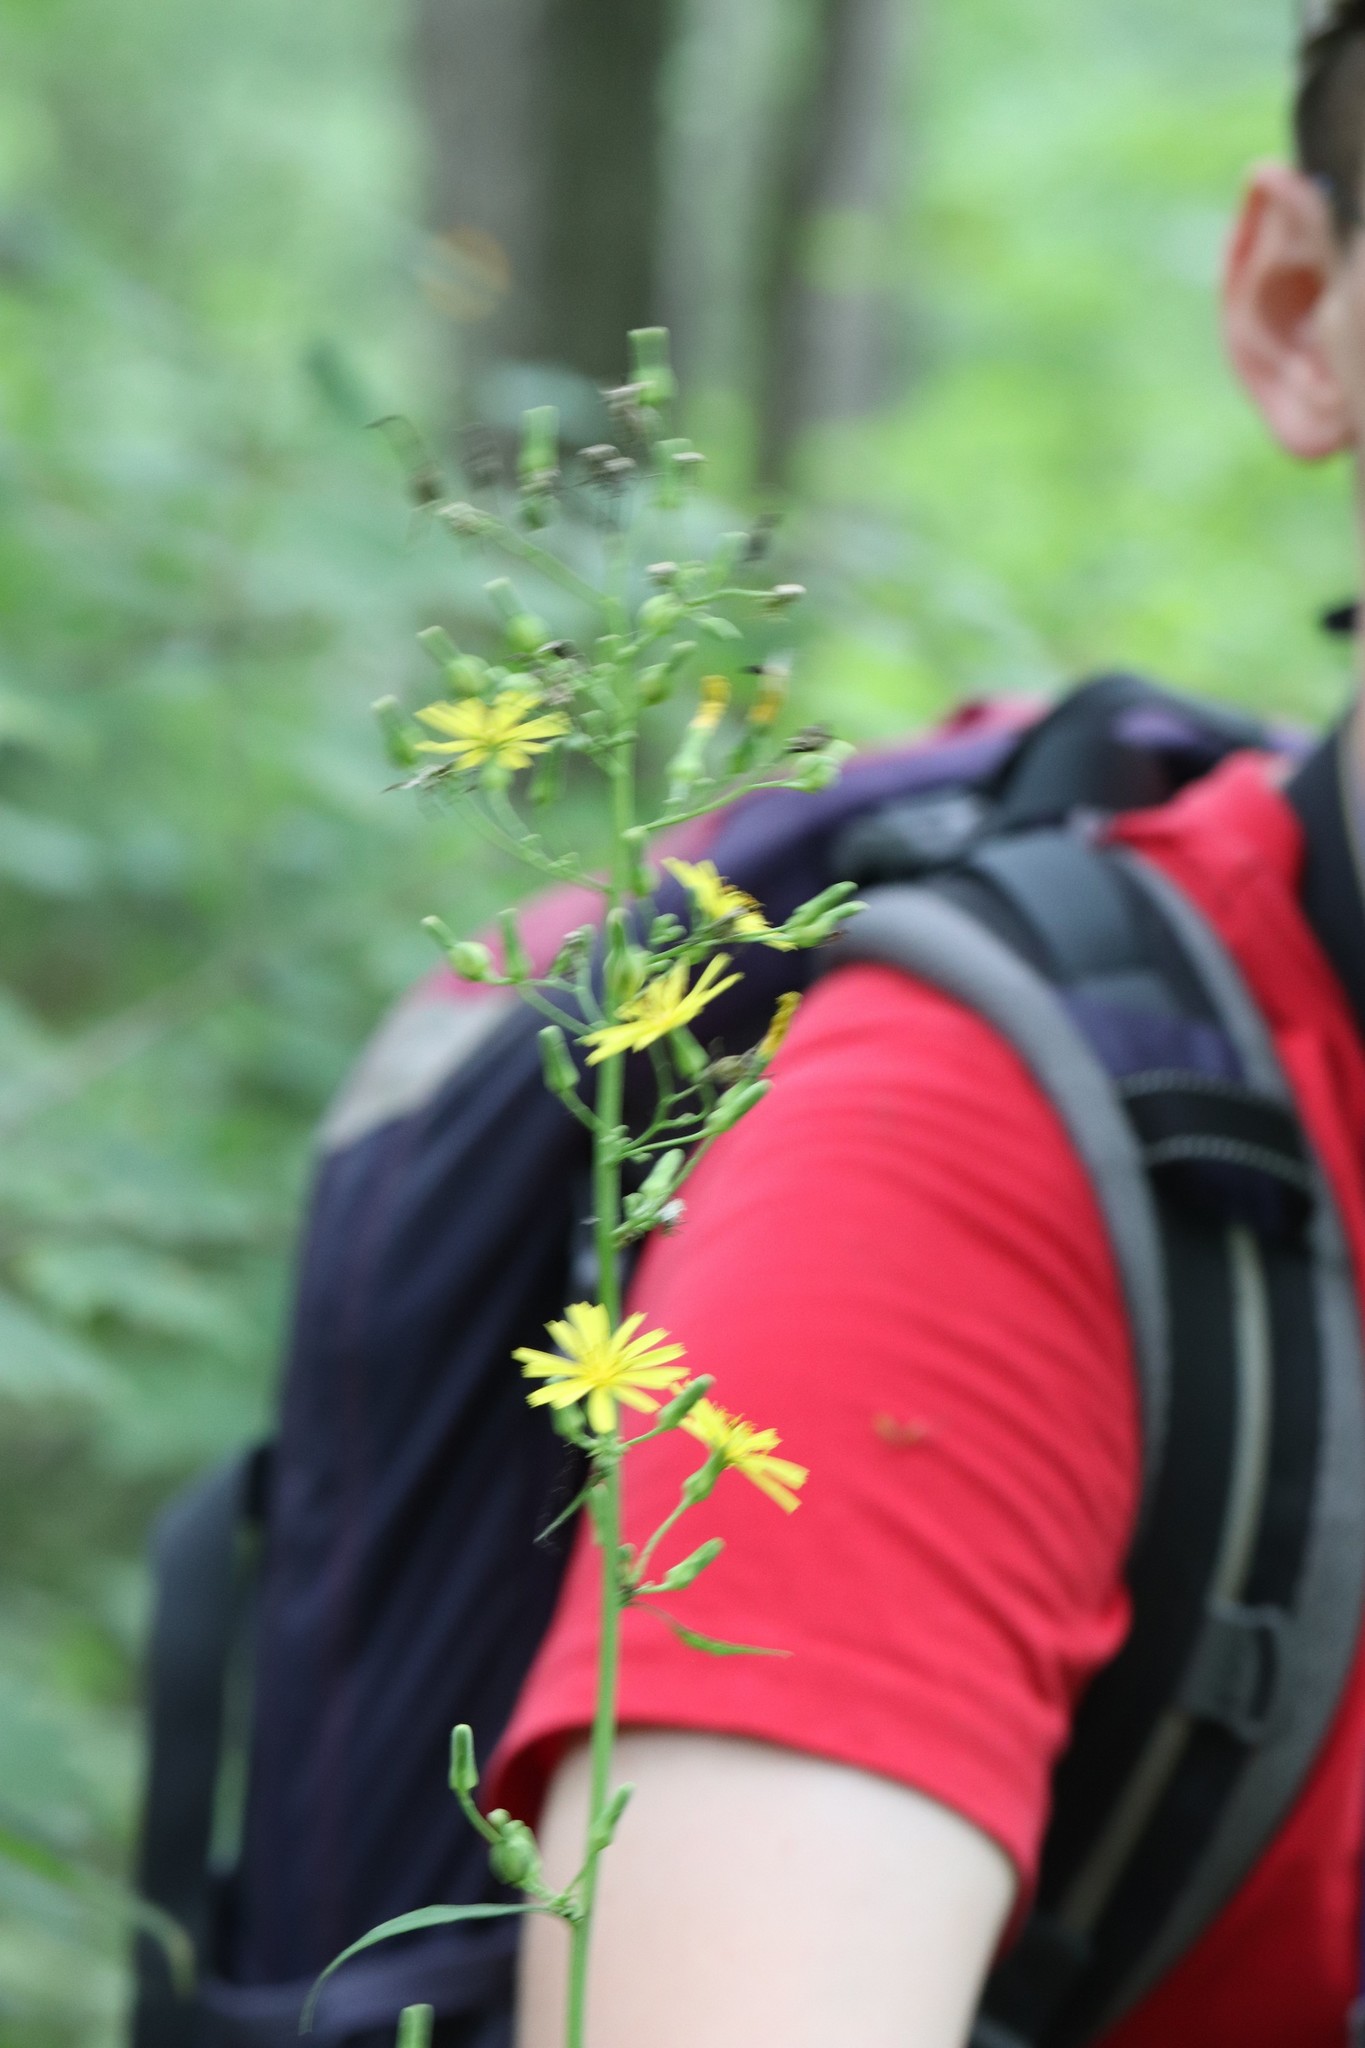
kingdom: Plantae
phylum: Tracheophyta
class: Magnoliopsida
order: Asterales
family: Asteraceae
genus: Lactuca
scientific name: Lactuca triangulata
